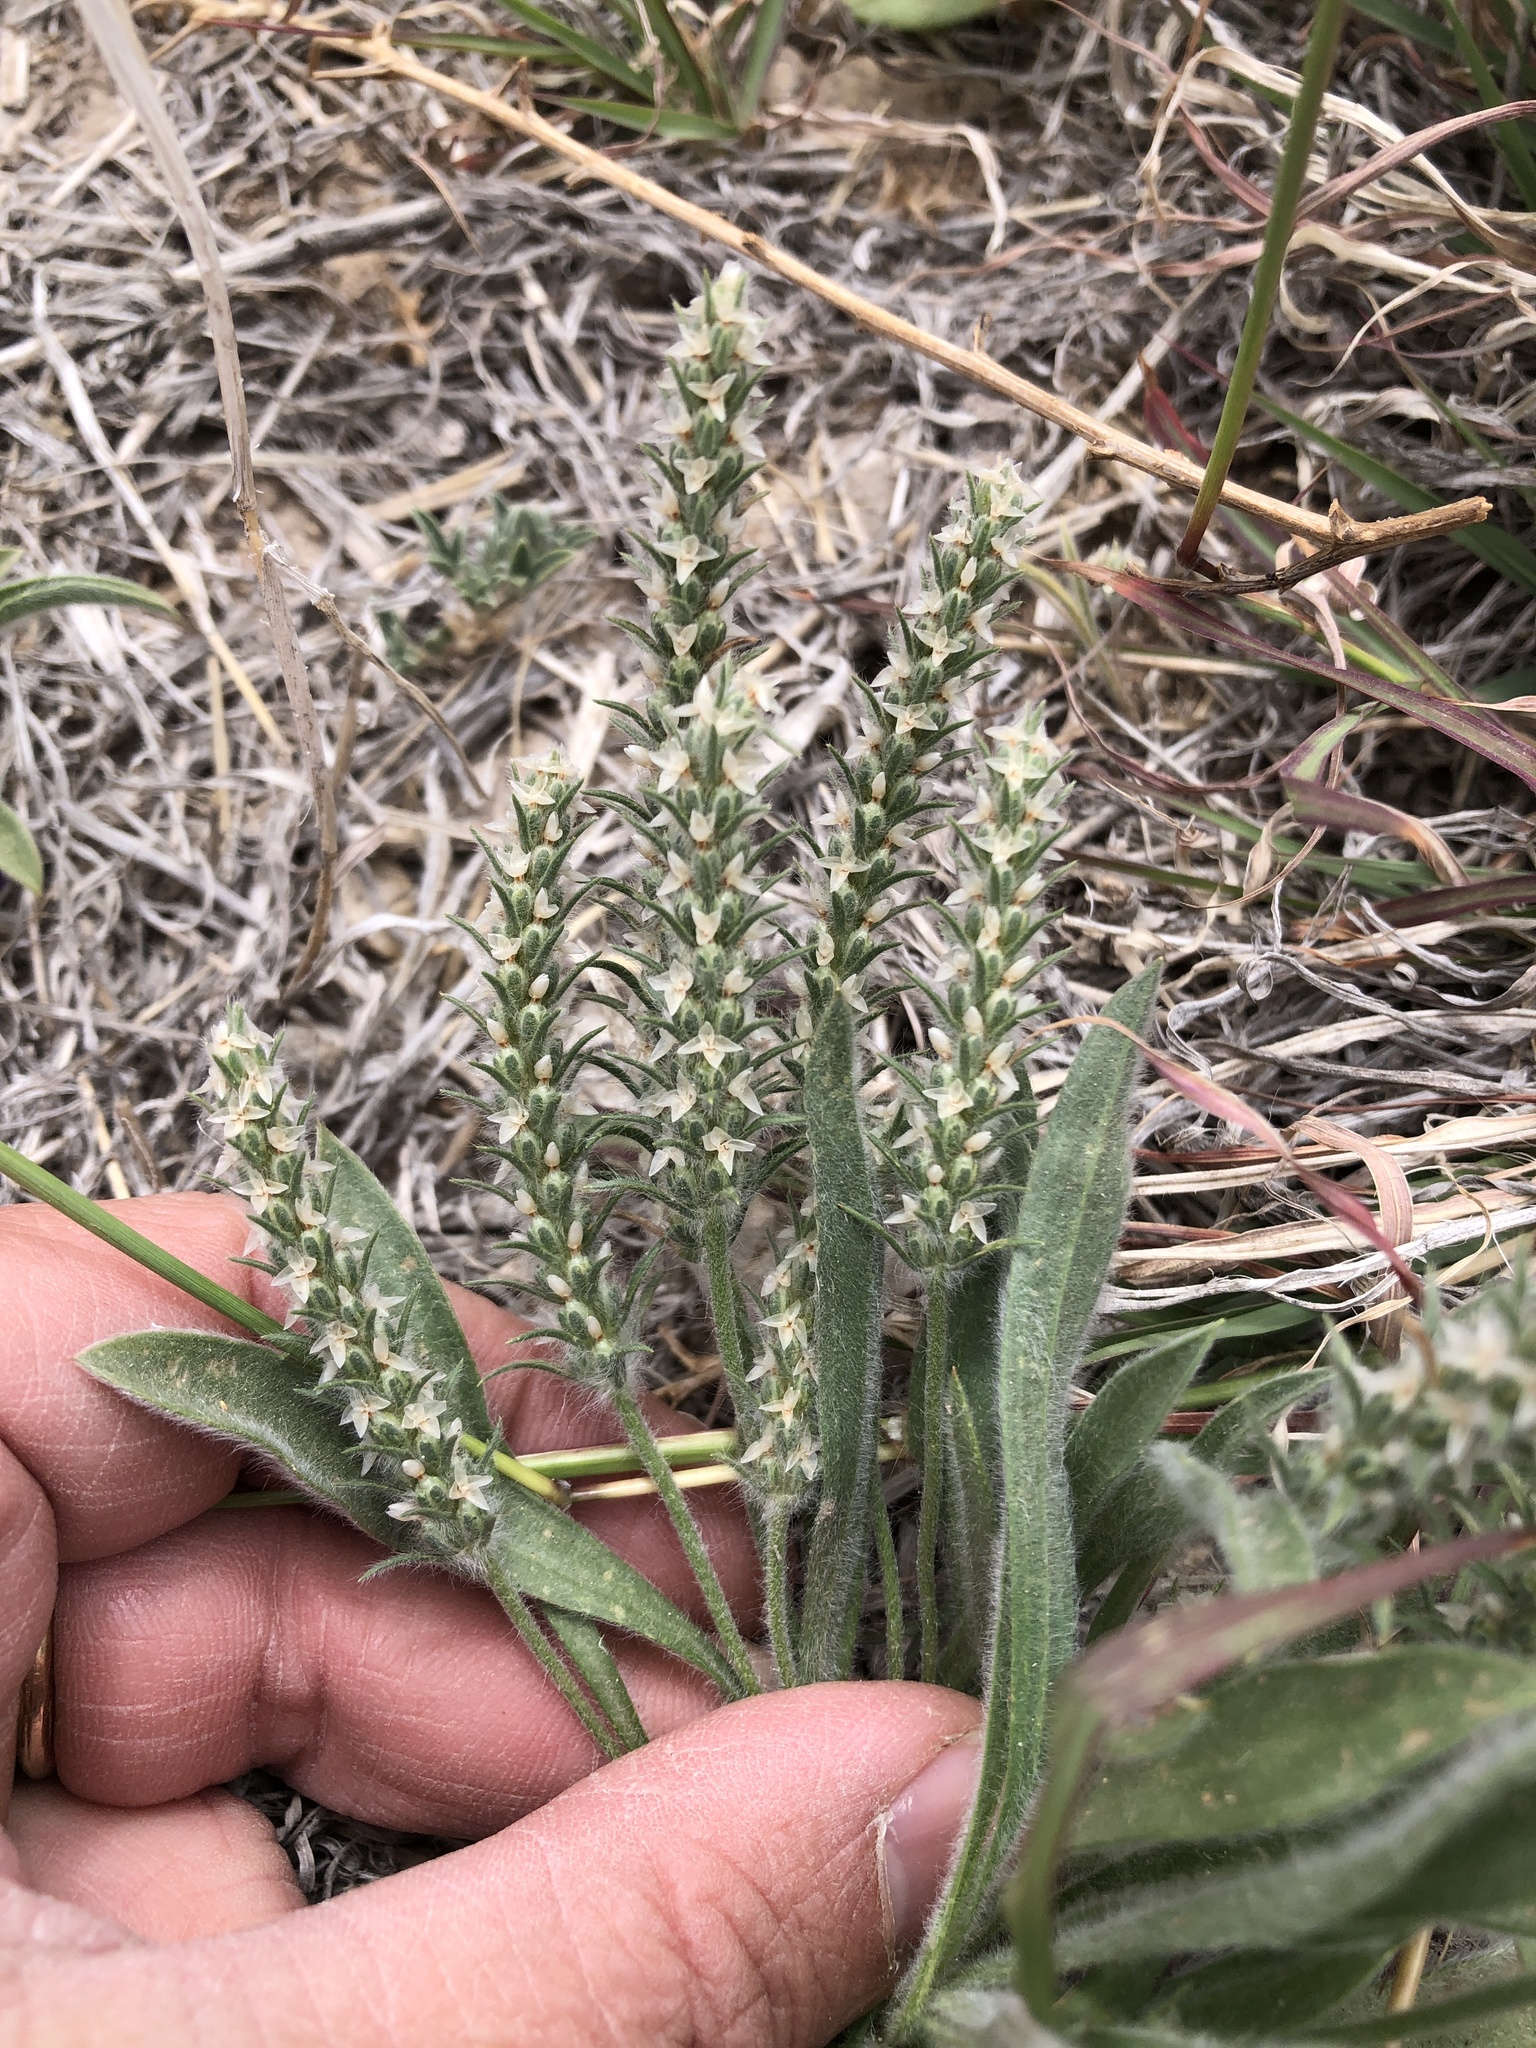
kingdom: Plantae
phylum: Tracheophyta
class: Magnoliopsida
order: Lamiales
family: Plantaginaceae
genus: Plantago
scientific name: Plantago patagonica
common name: Patagonia indian-wheat
